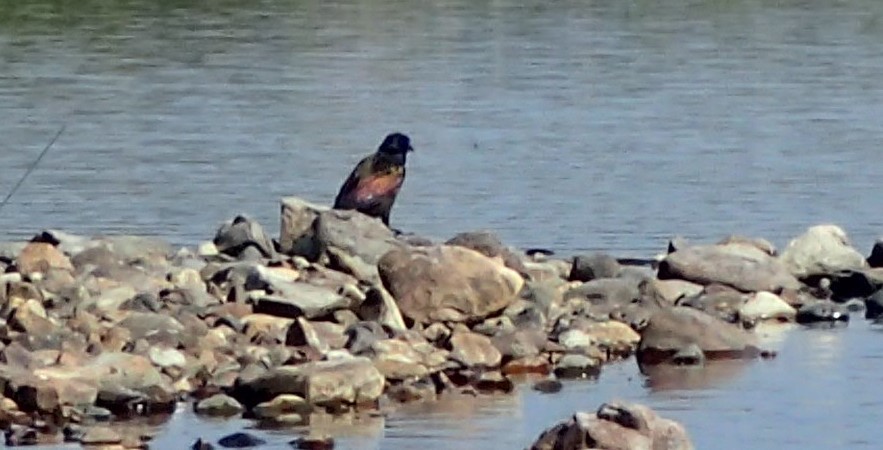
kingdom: Animalia
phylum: Chordata
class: Aves
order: Passeriformes
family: Icteridae
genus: Quiscalus
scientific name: Quiscalus quiscula
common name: Common grackle
